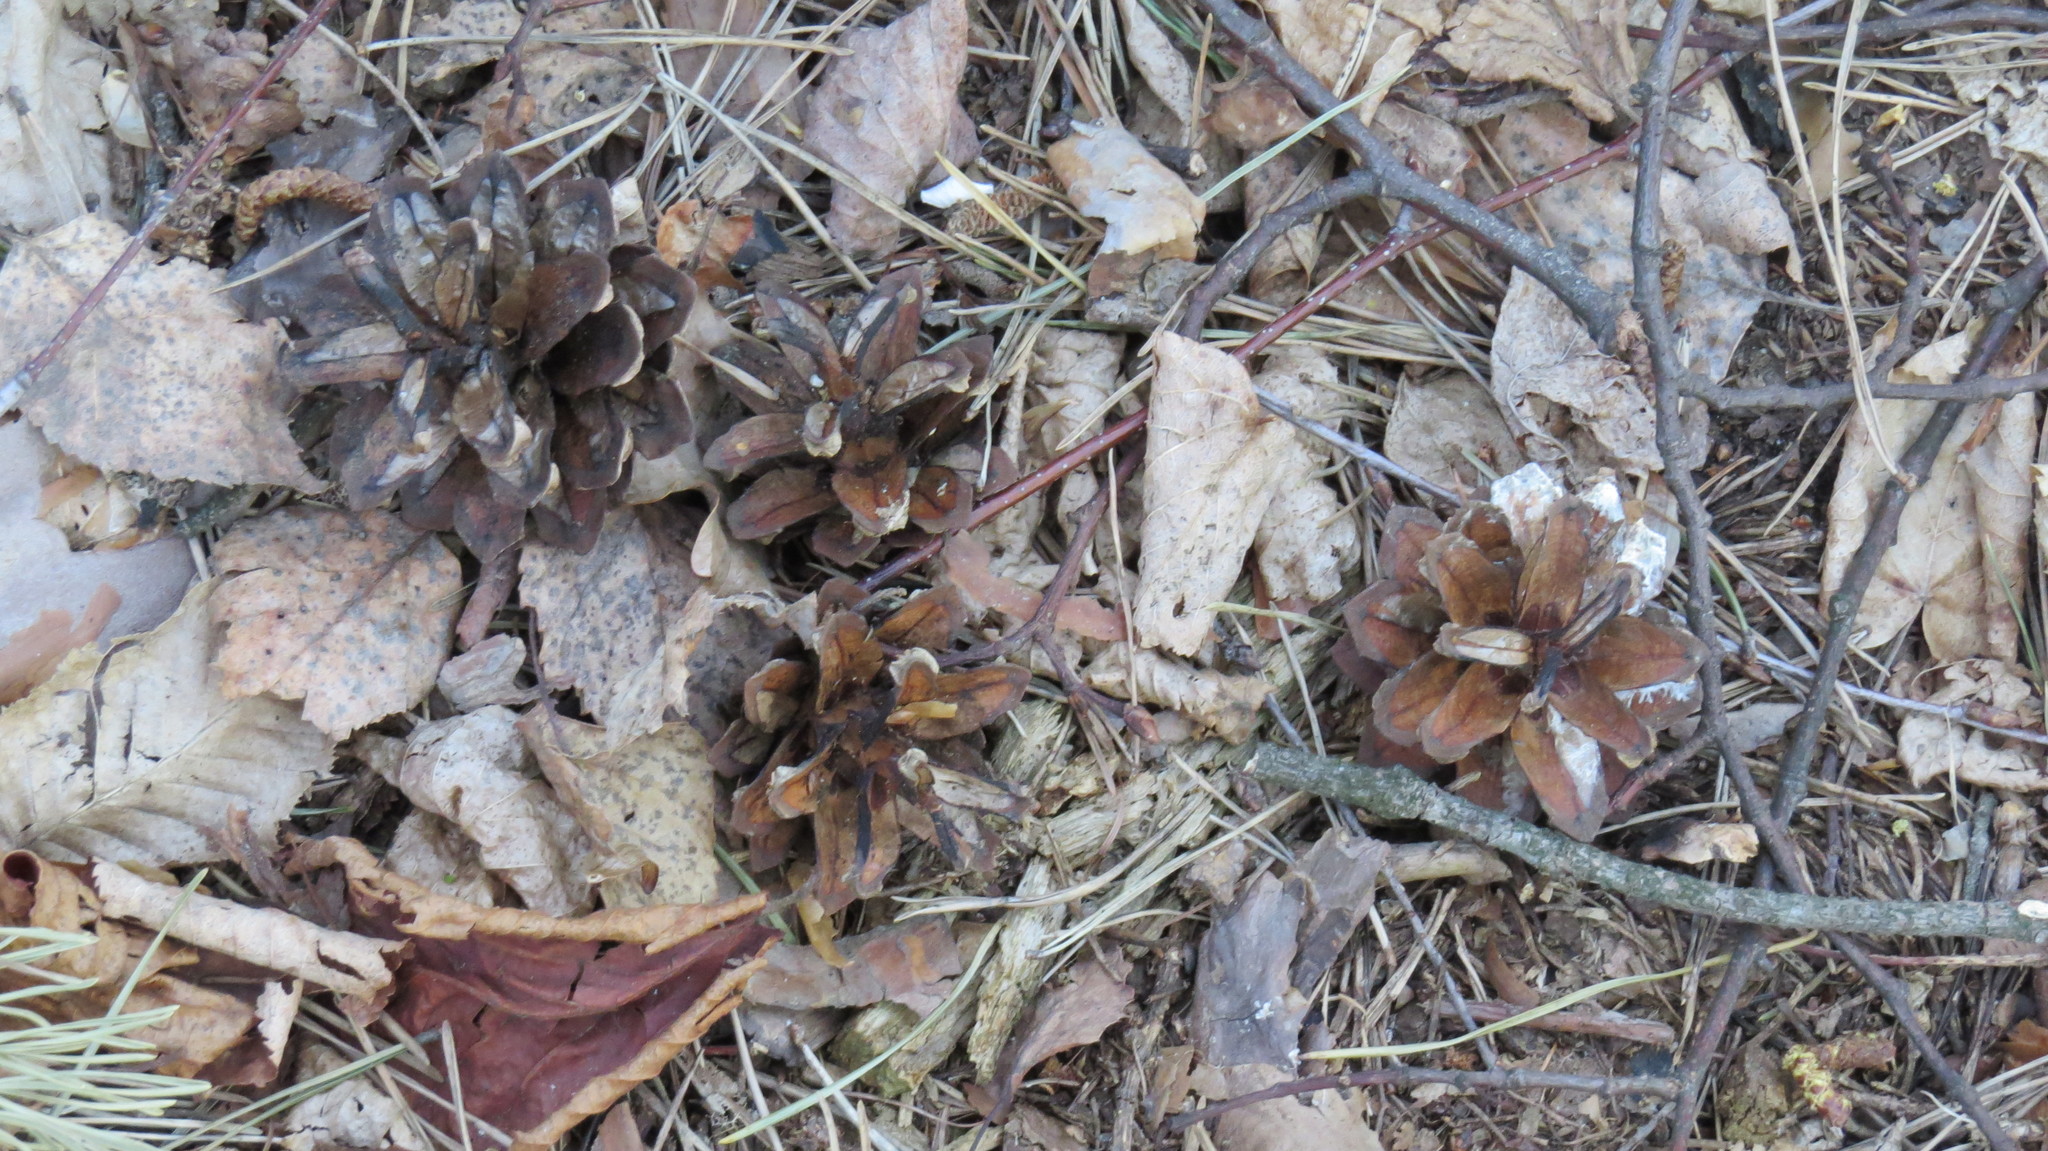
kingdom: Plantae
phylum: Tracheophyta
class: Pinopsida
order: Pinales
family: Pinaceae
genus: Pinus
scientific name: Pinus sylvestris
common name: Scots pine
